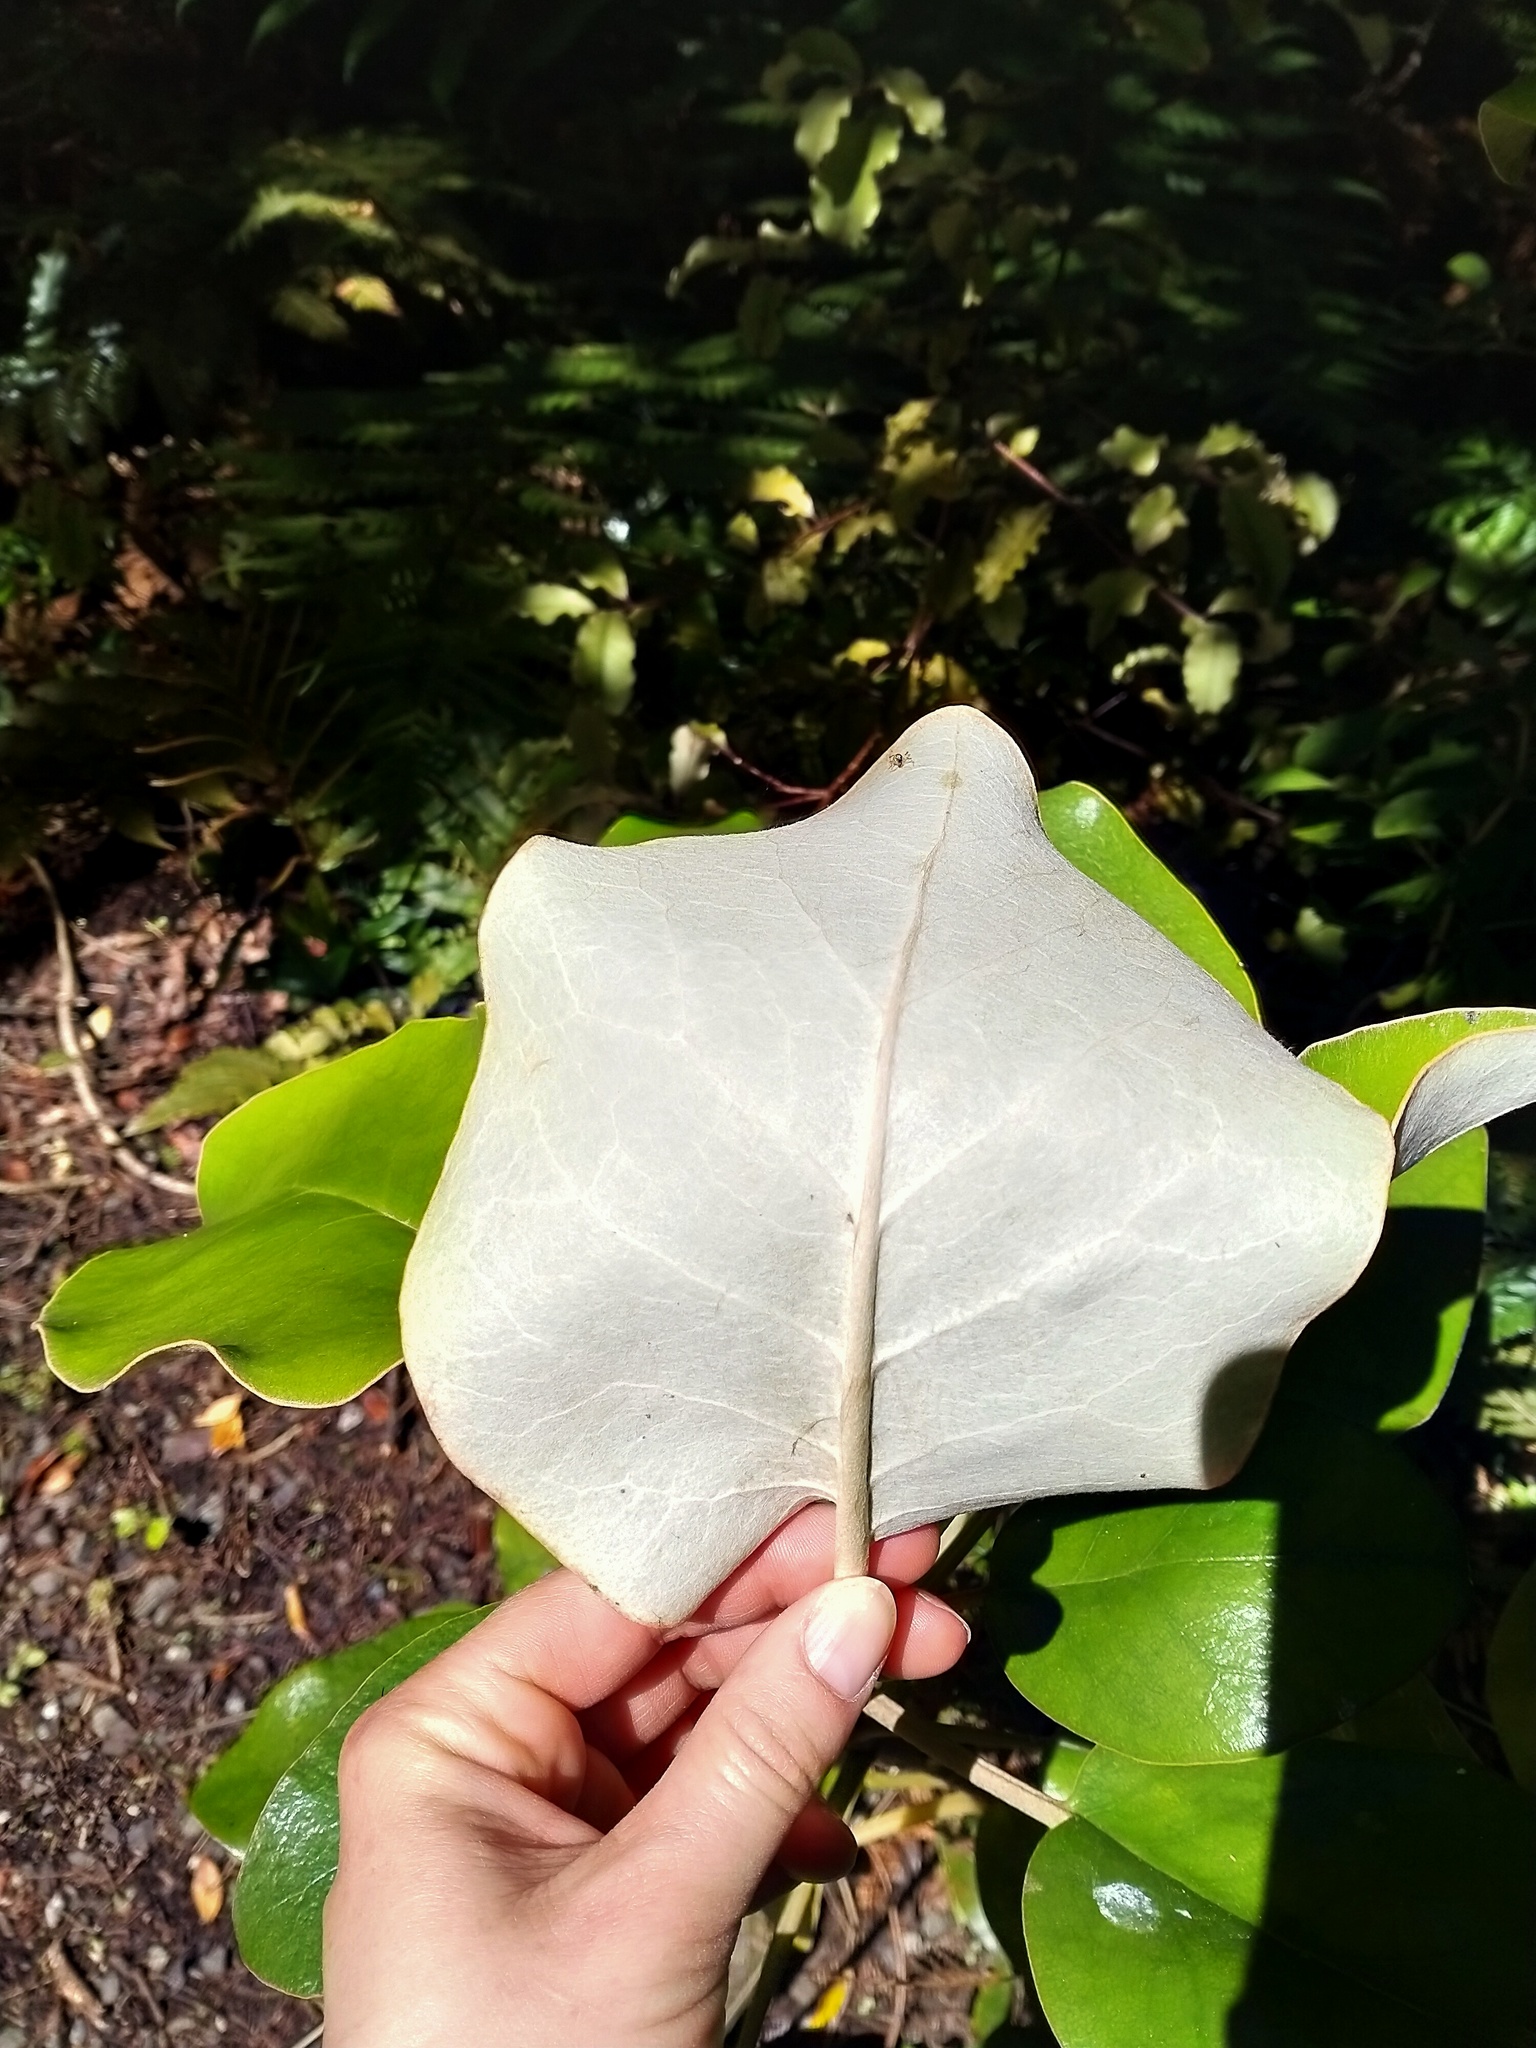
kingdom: Plantae
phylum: Tracheophyta
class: Magnoliopsida
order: Asterales
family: Asteraceae
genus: Brachyglottis
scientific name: Brachyglottis rotundifolia
